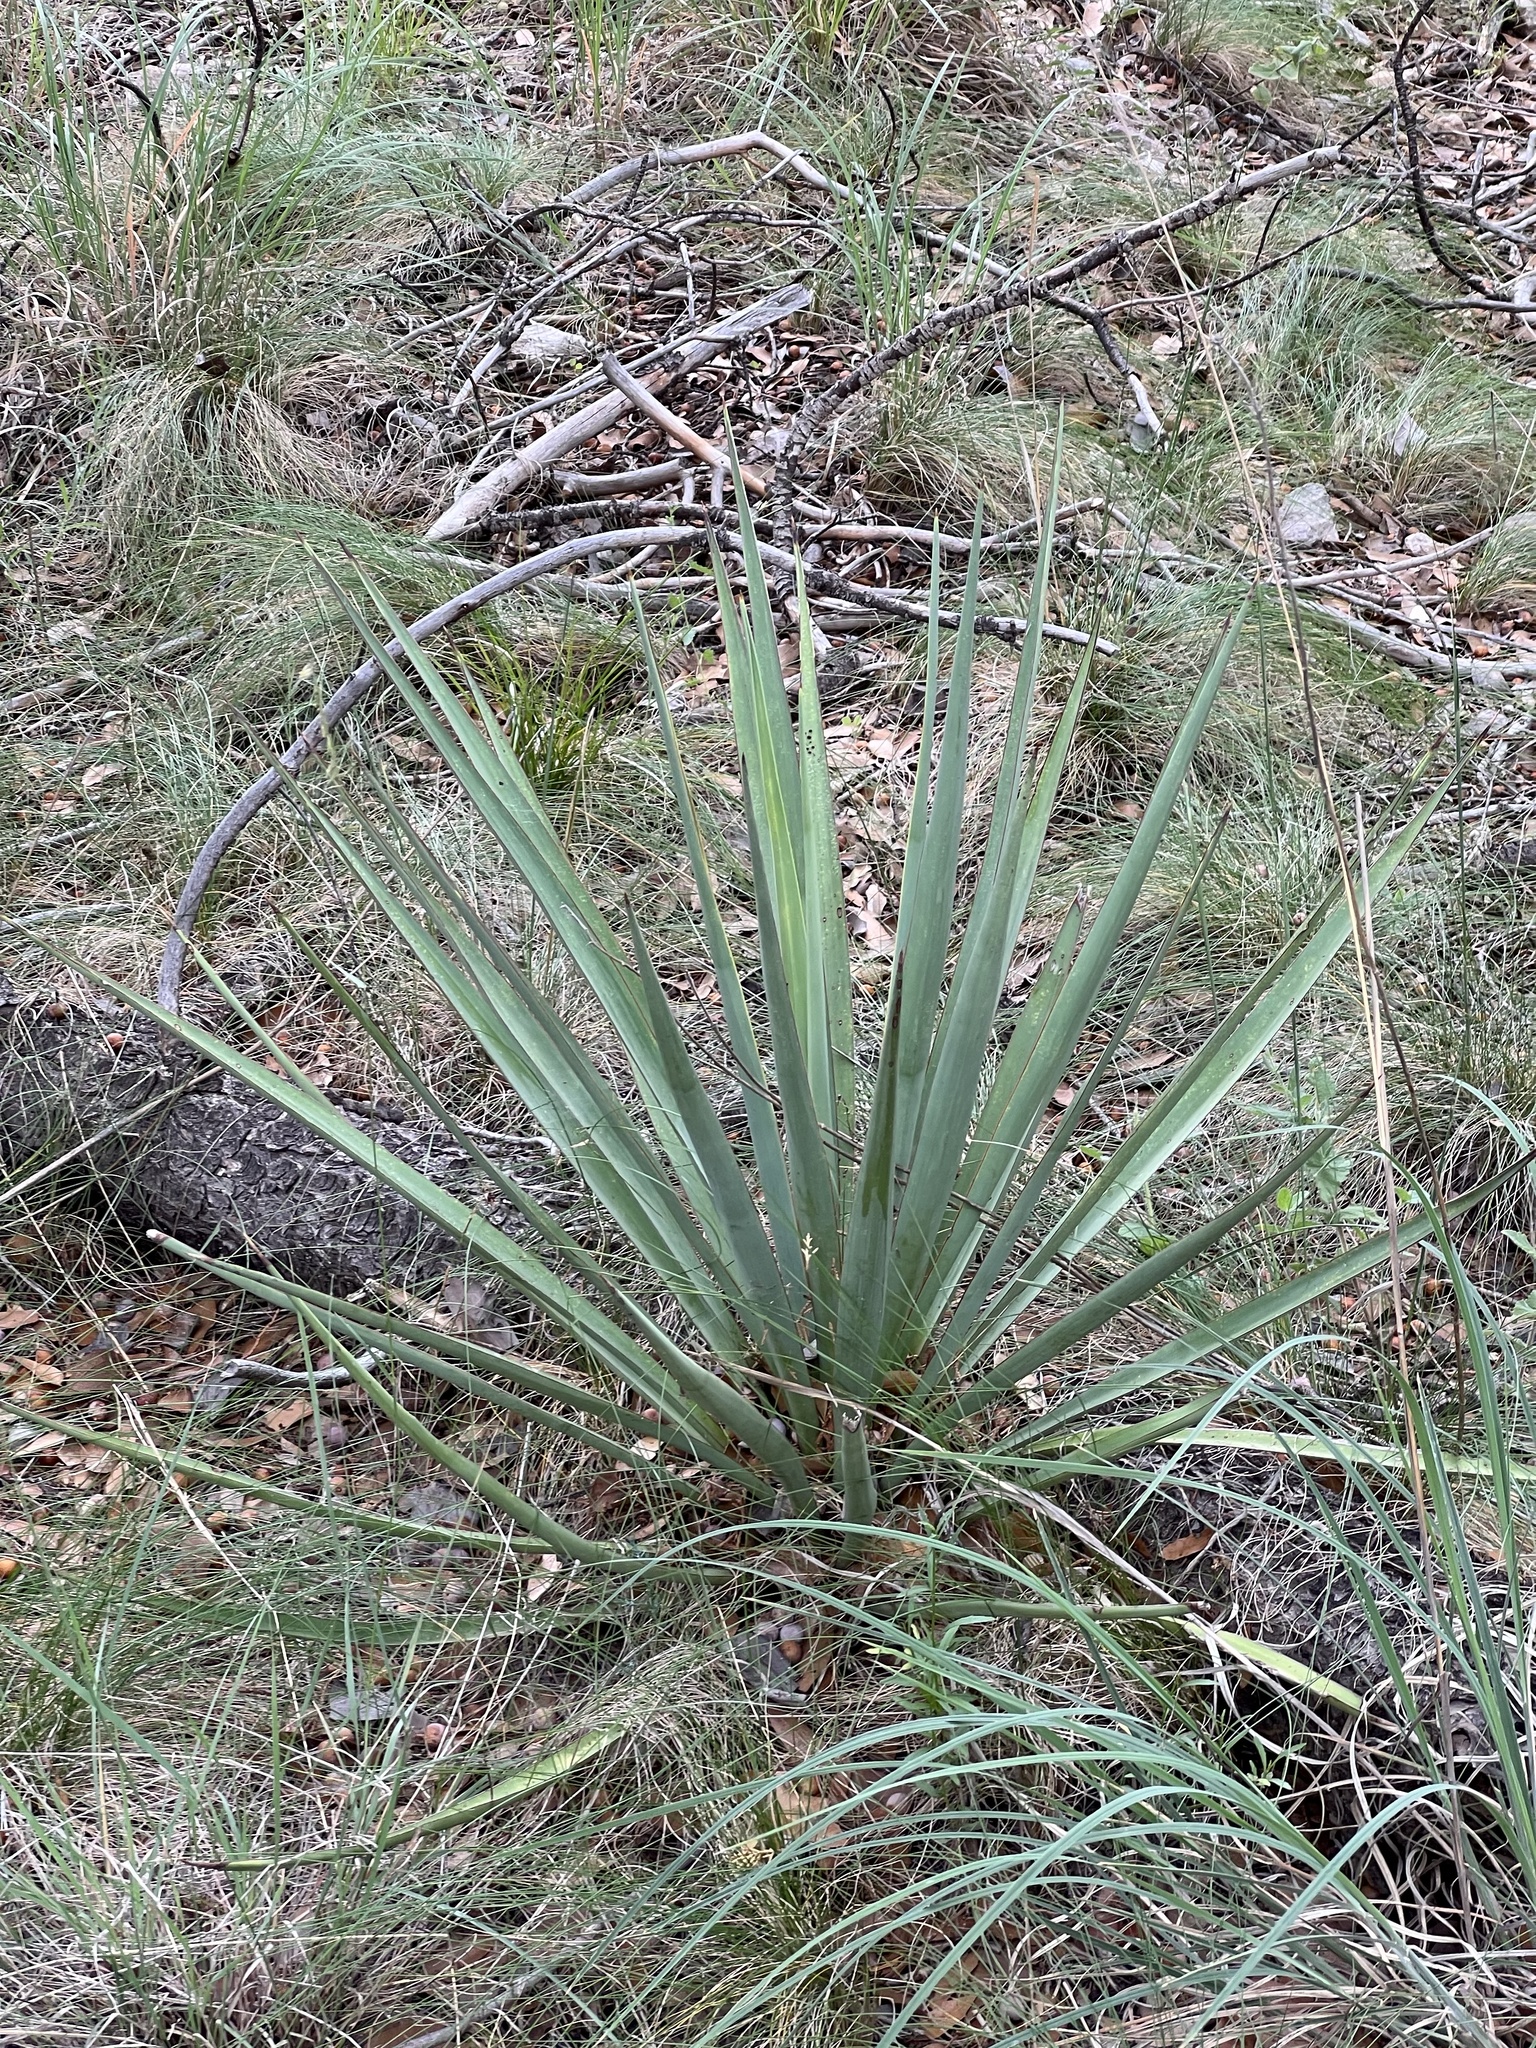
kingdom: Plantae
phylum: Tracheophyta
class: Liliopsida
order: Asparagales
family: Asparagaceae
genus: Yucca
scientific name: Yucca schottii
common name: Hoary yucca
